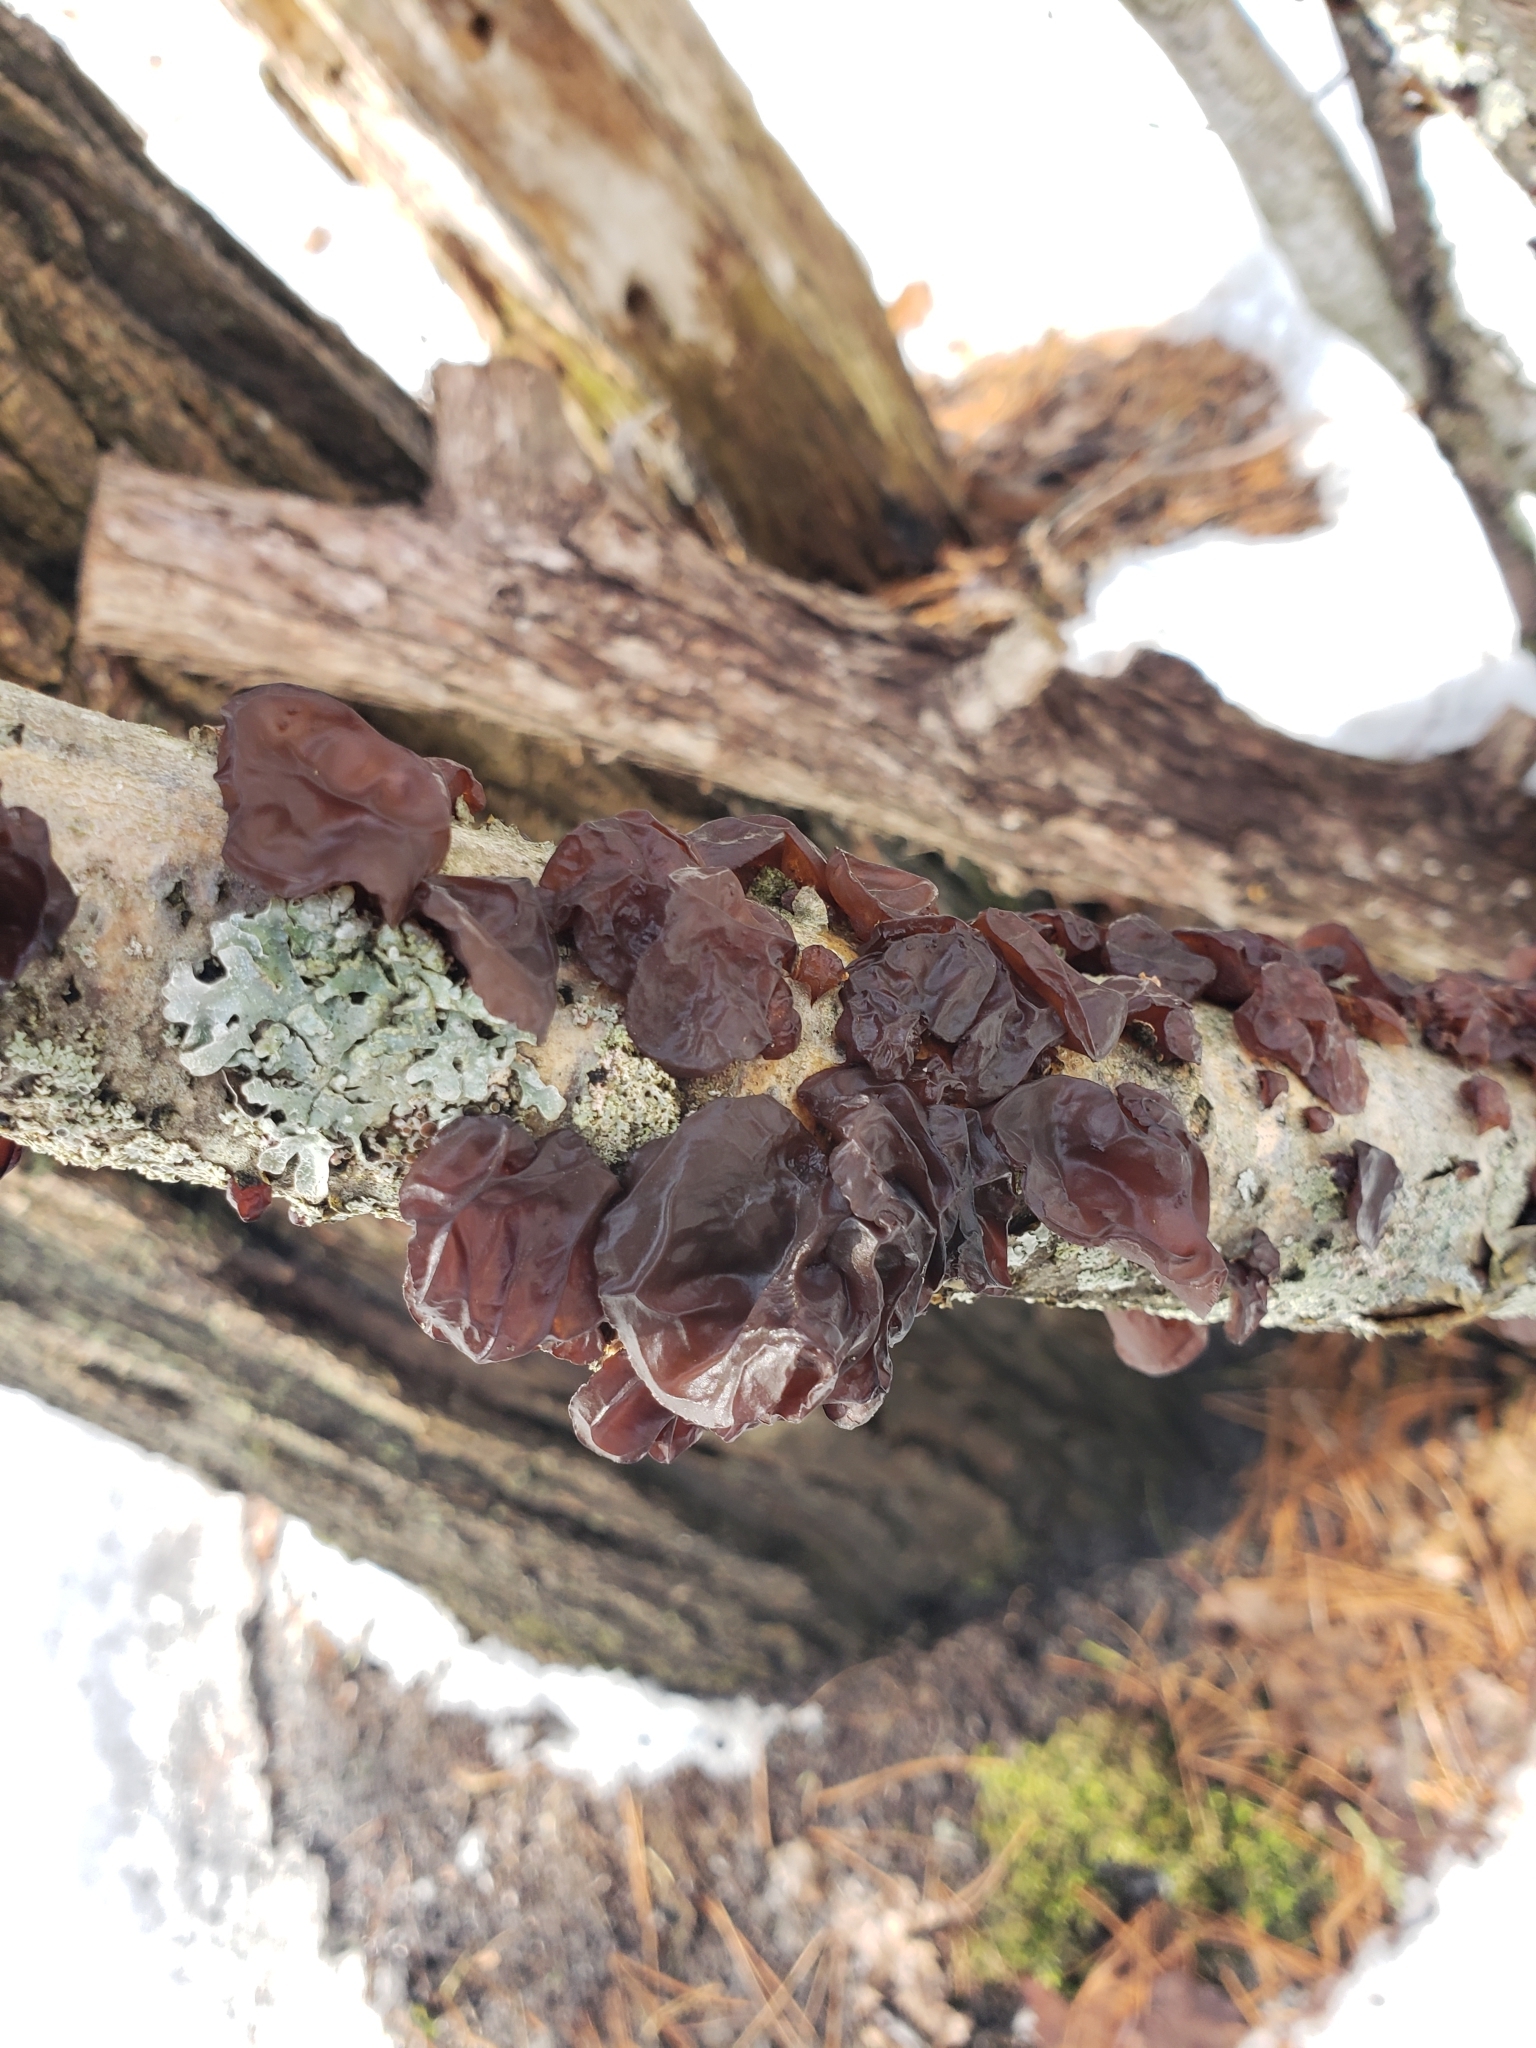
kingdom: Fungi
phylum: Basidiomycota
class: Agaricomycetes
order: Auriculariales
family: Auriculariaceae
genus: Exidia
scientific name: Exidia
